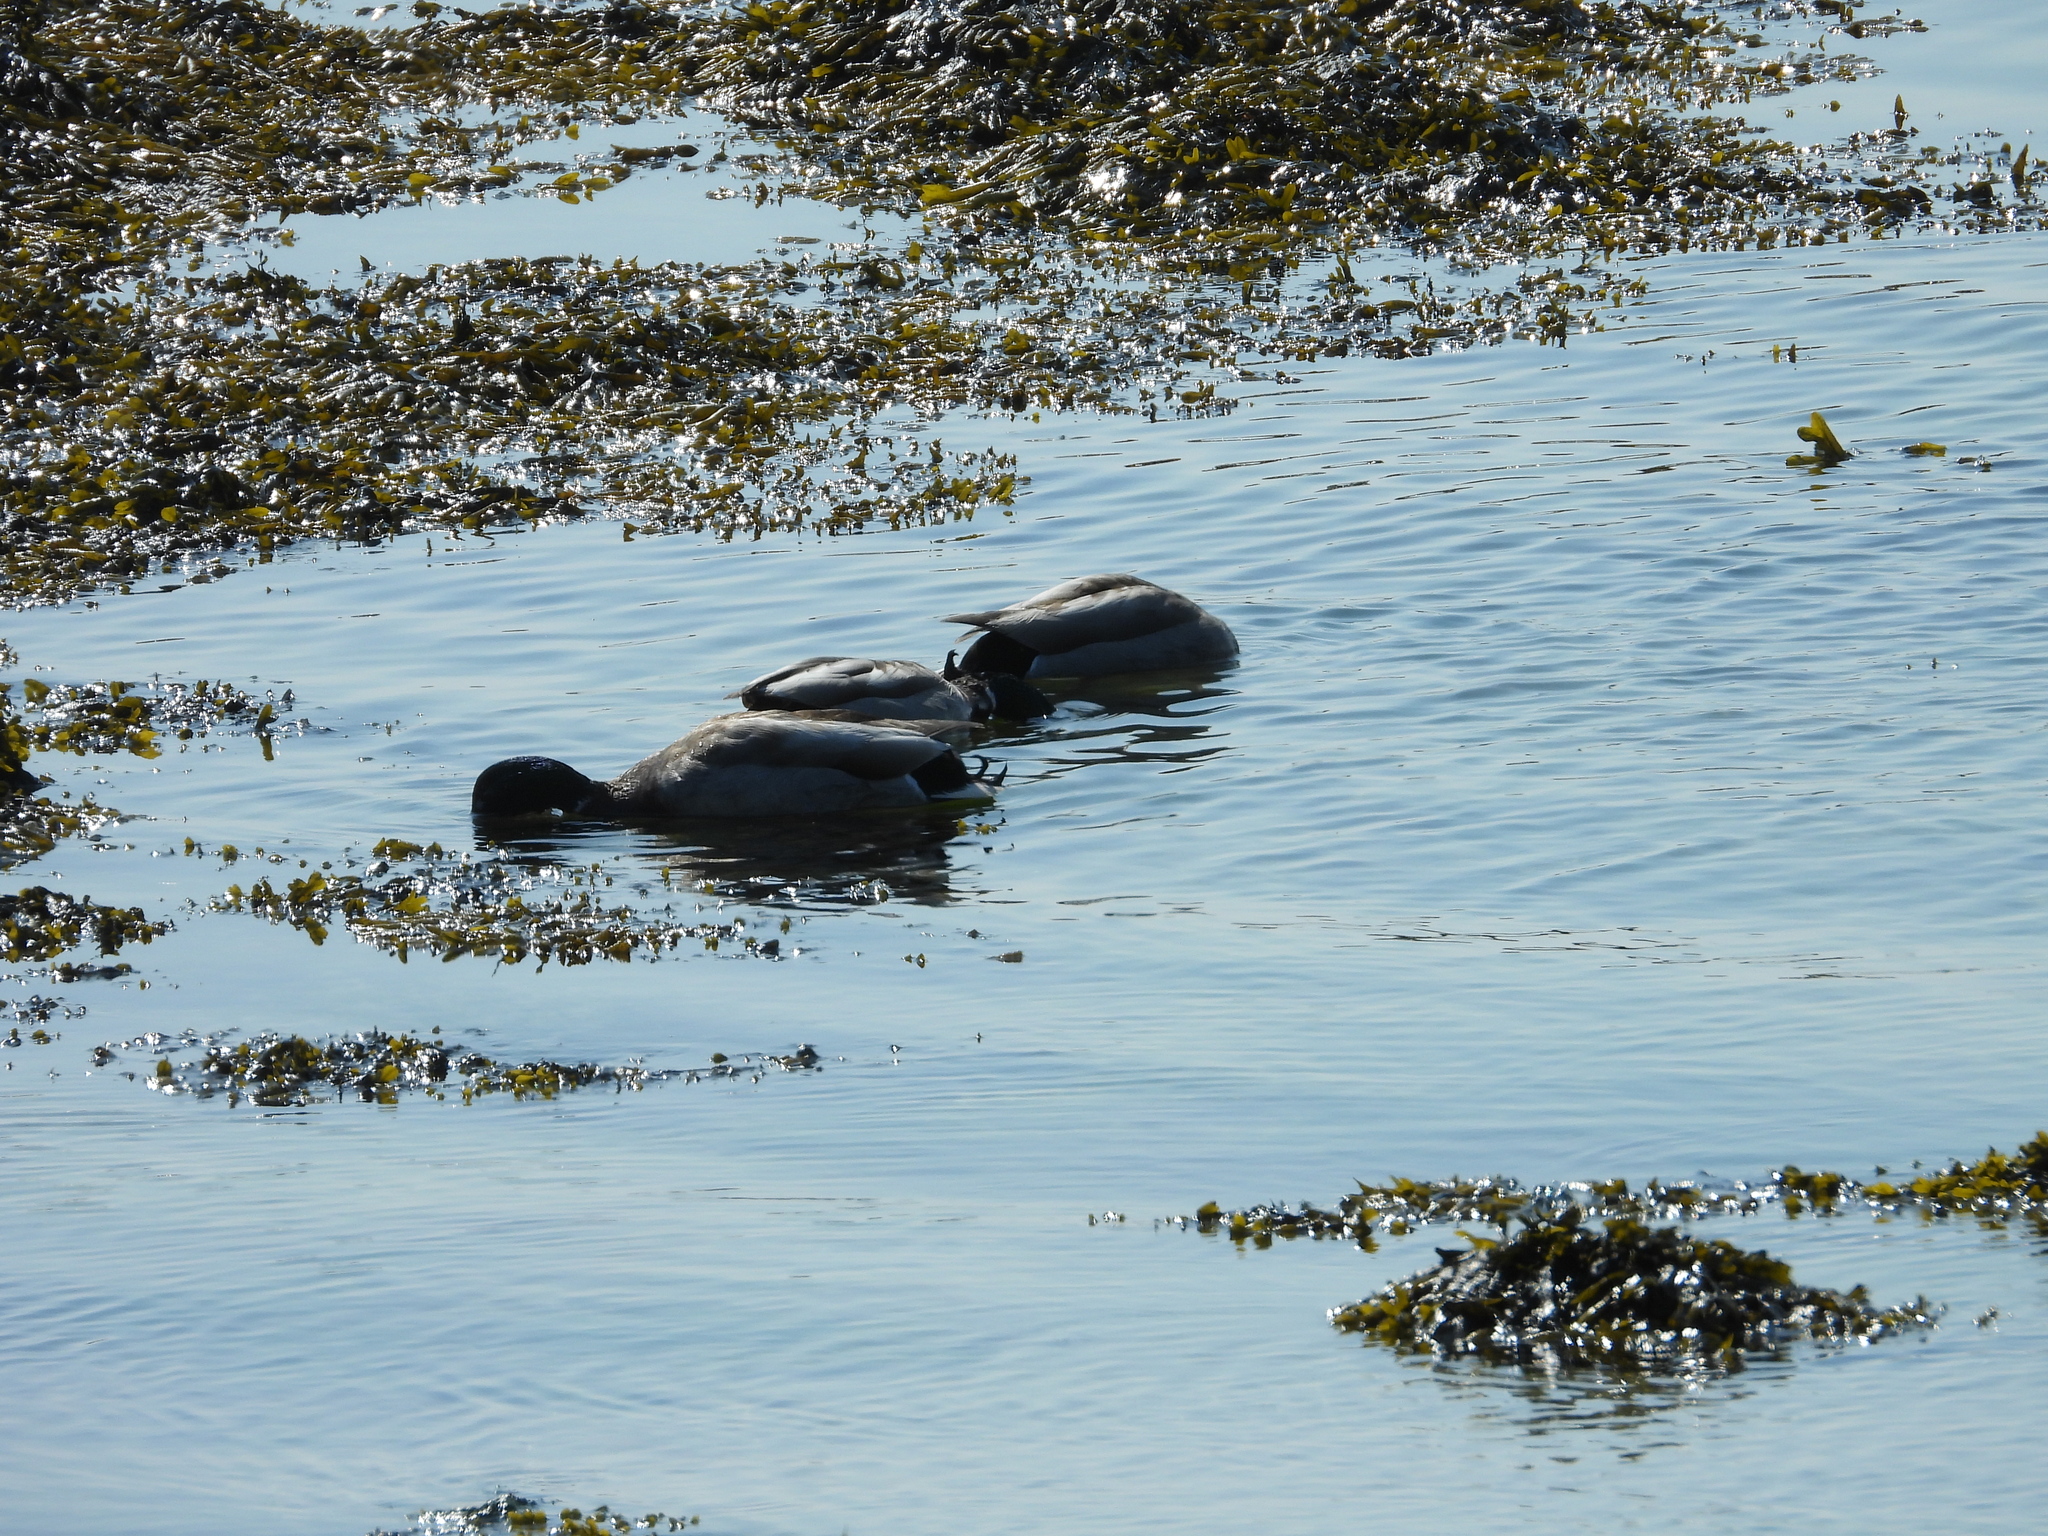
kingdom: Animalia
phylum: Chordata
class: Aves
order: Anseriformes
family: Anatidae
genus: Anas
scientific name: Anas platyrhynchos
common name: Mallard
